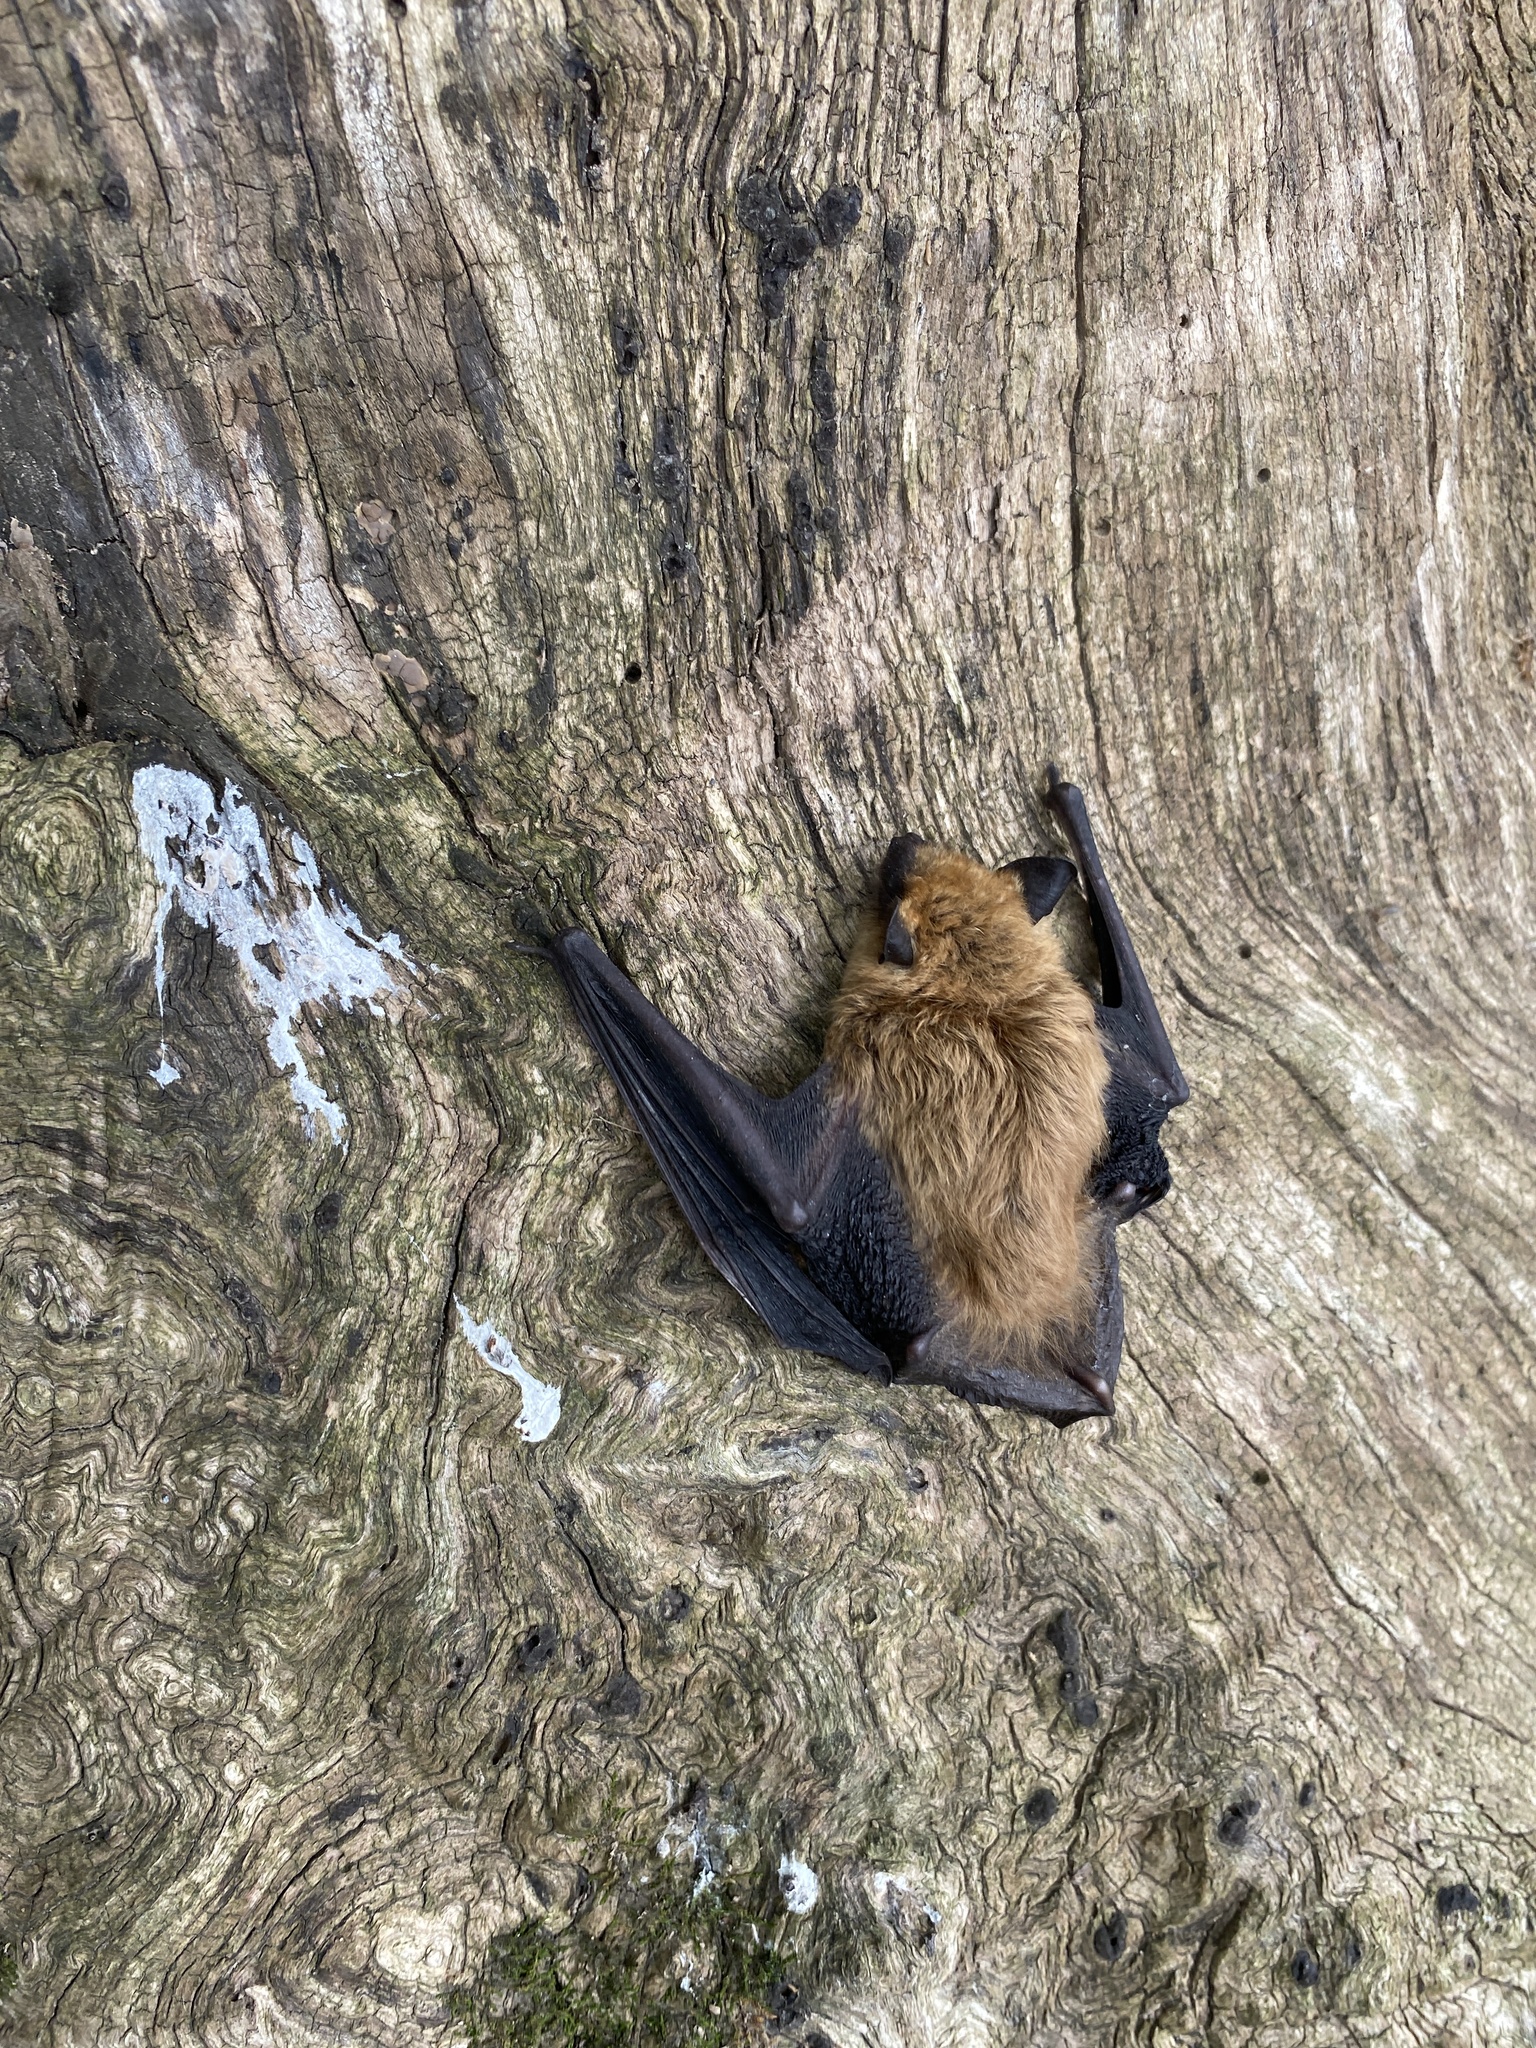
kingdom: Animalia
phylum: Chordata
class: Mammalia
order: Chiroptera
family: Vespertilionidae
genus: Eptesicus
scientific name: Eptesicus fuscus
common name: Big brown bat
